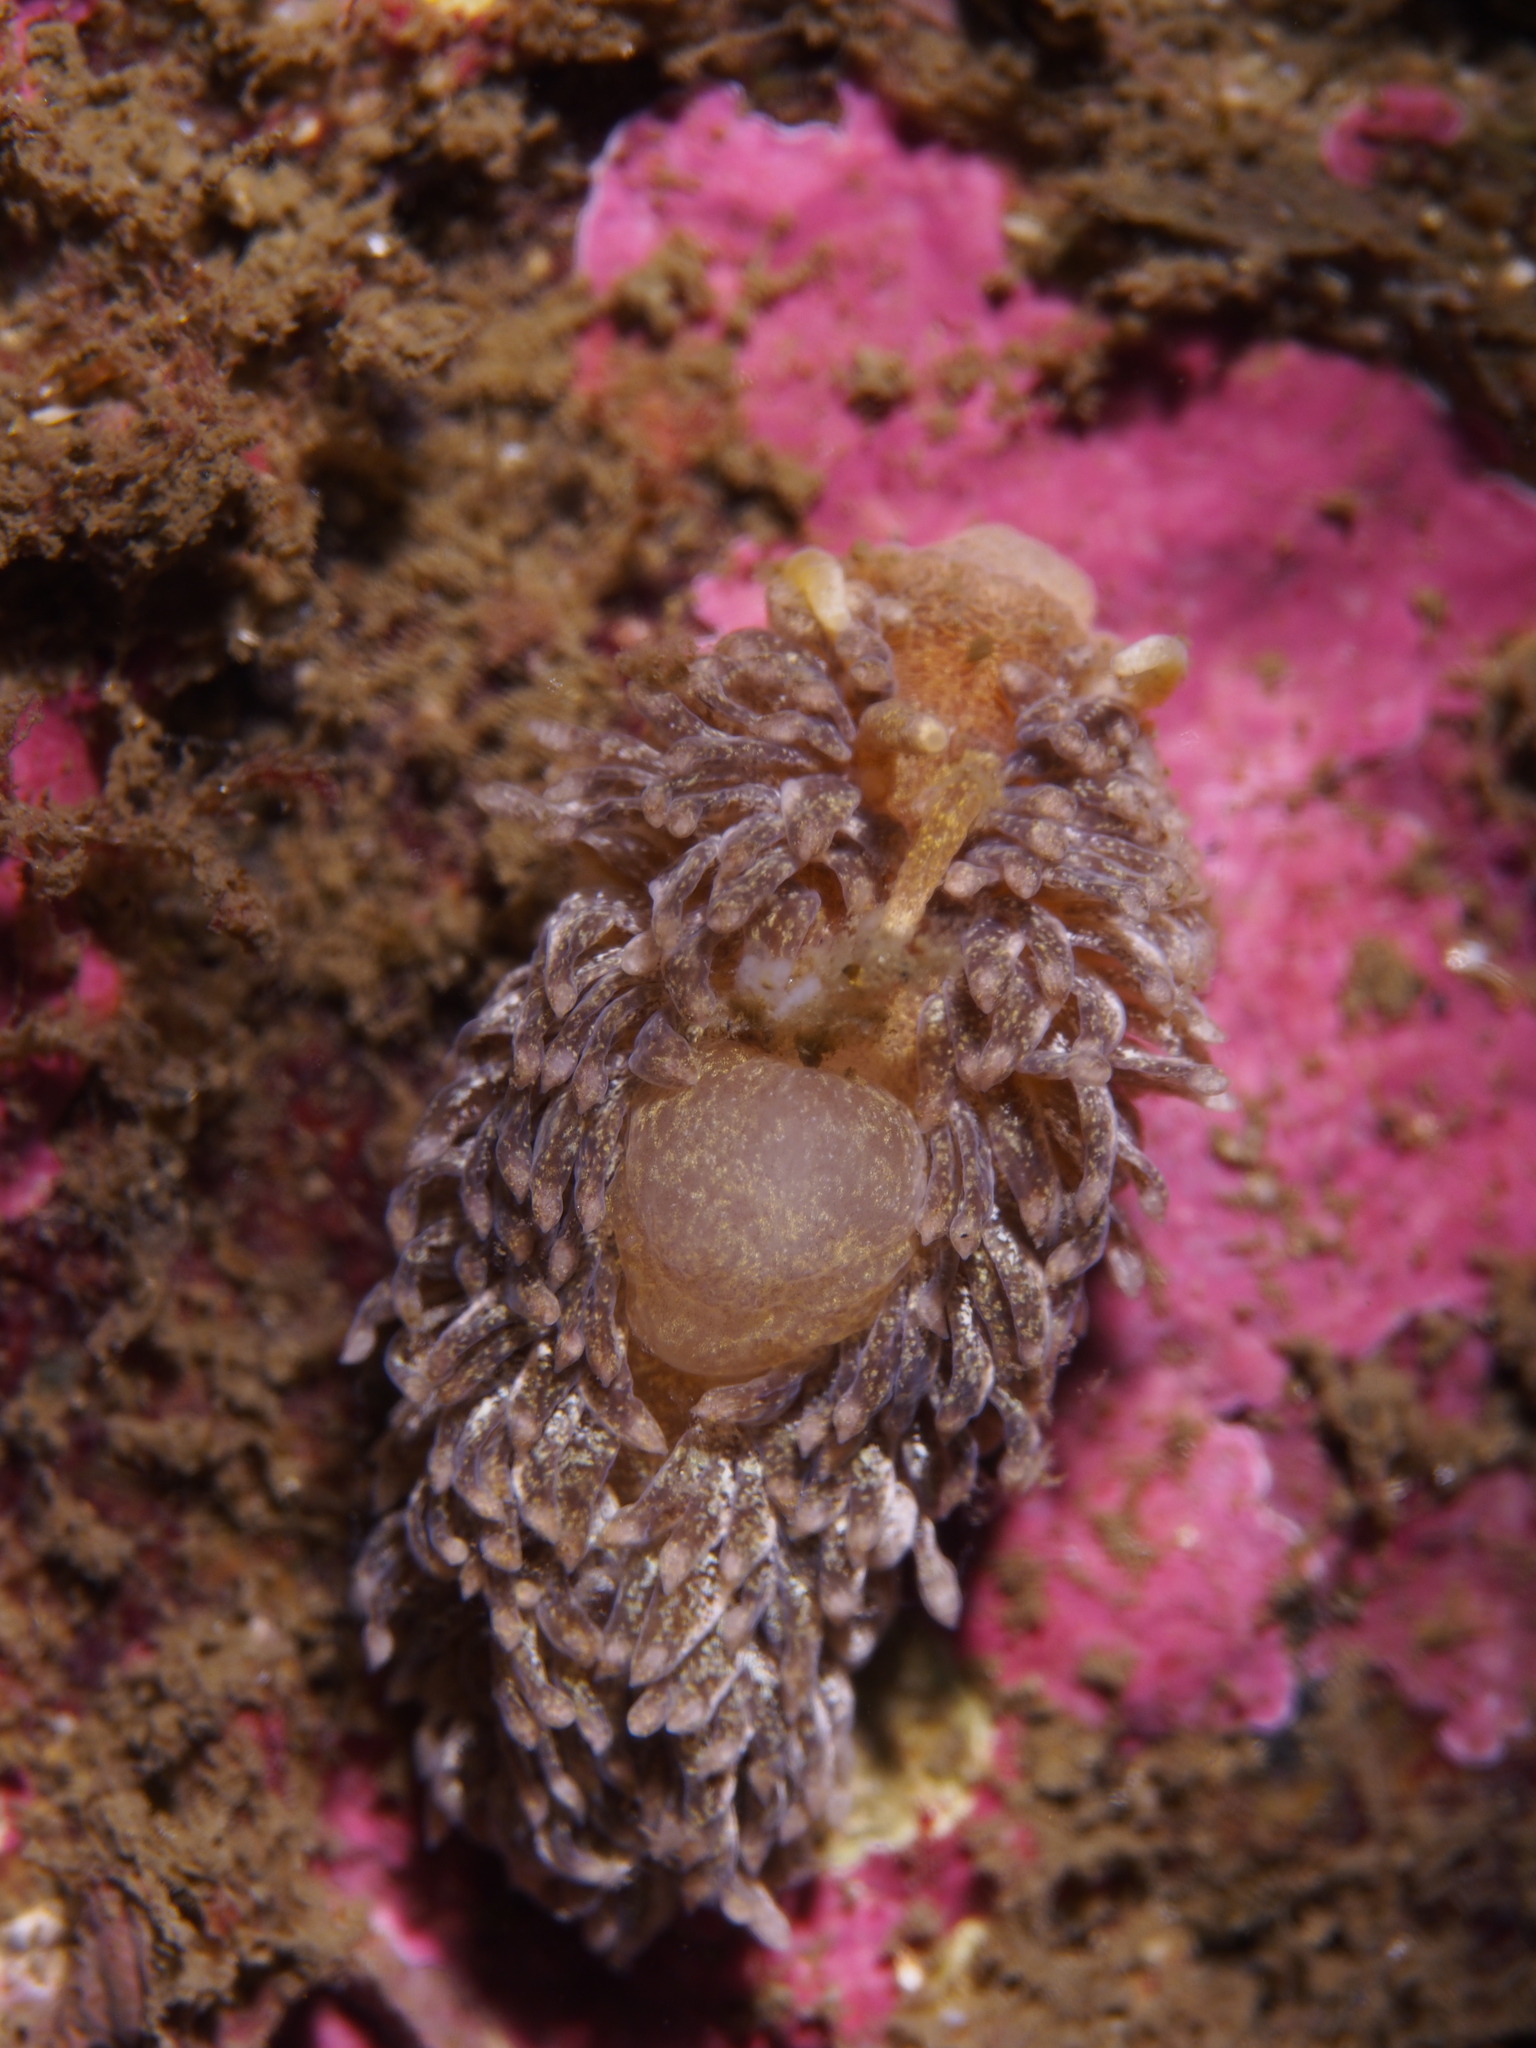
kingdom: Animalia
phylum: Mollusca
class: Gastropoda
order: Nudibranchia
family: Aeolidiidae
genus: Aeolidia
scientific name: Aeolidia papillosa
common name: Common grey sea slug
